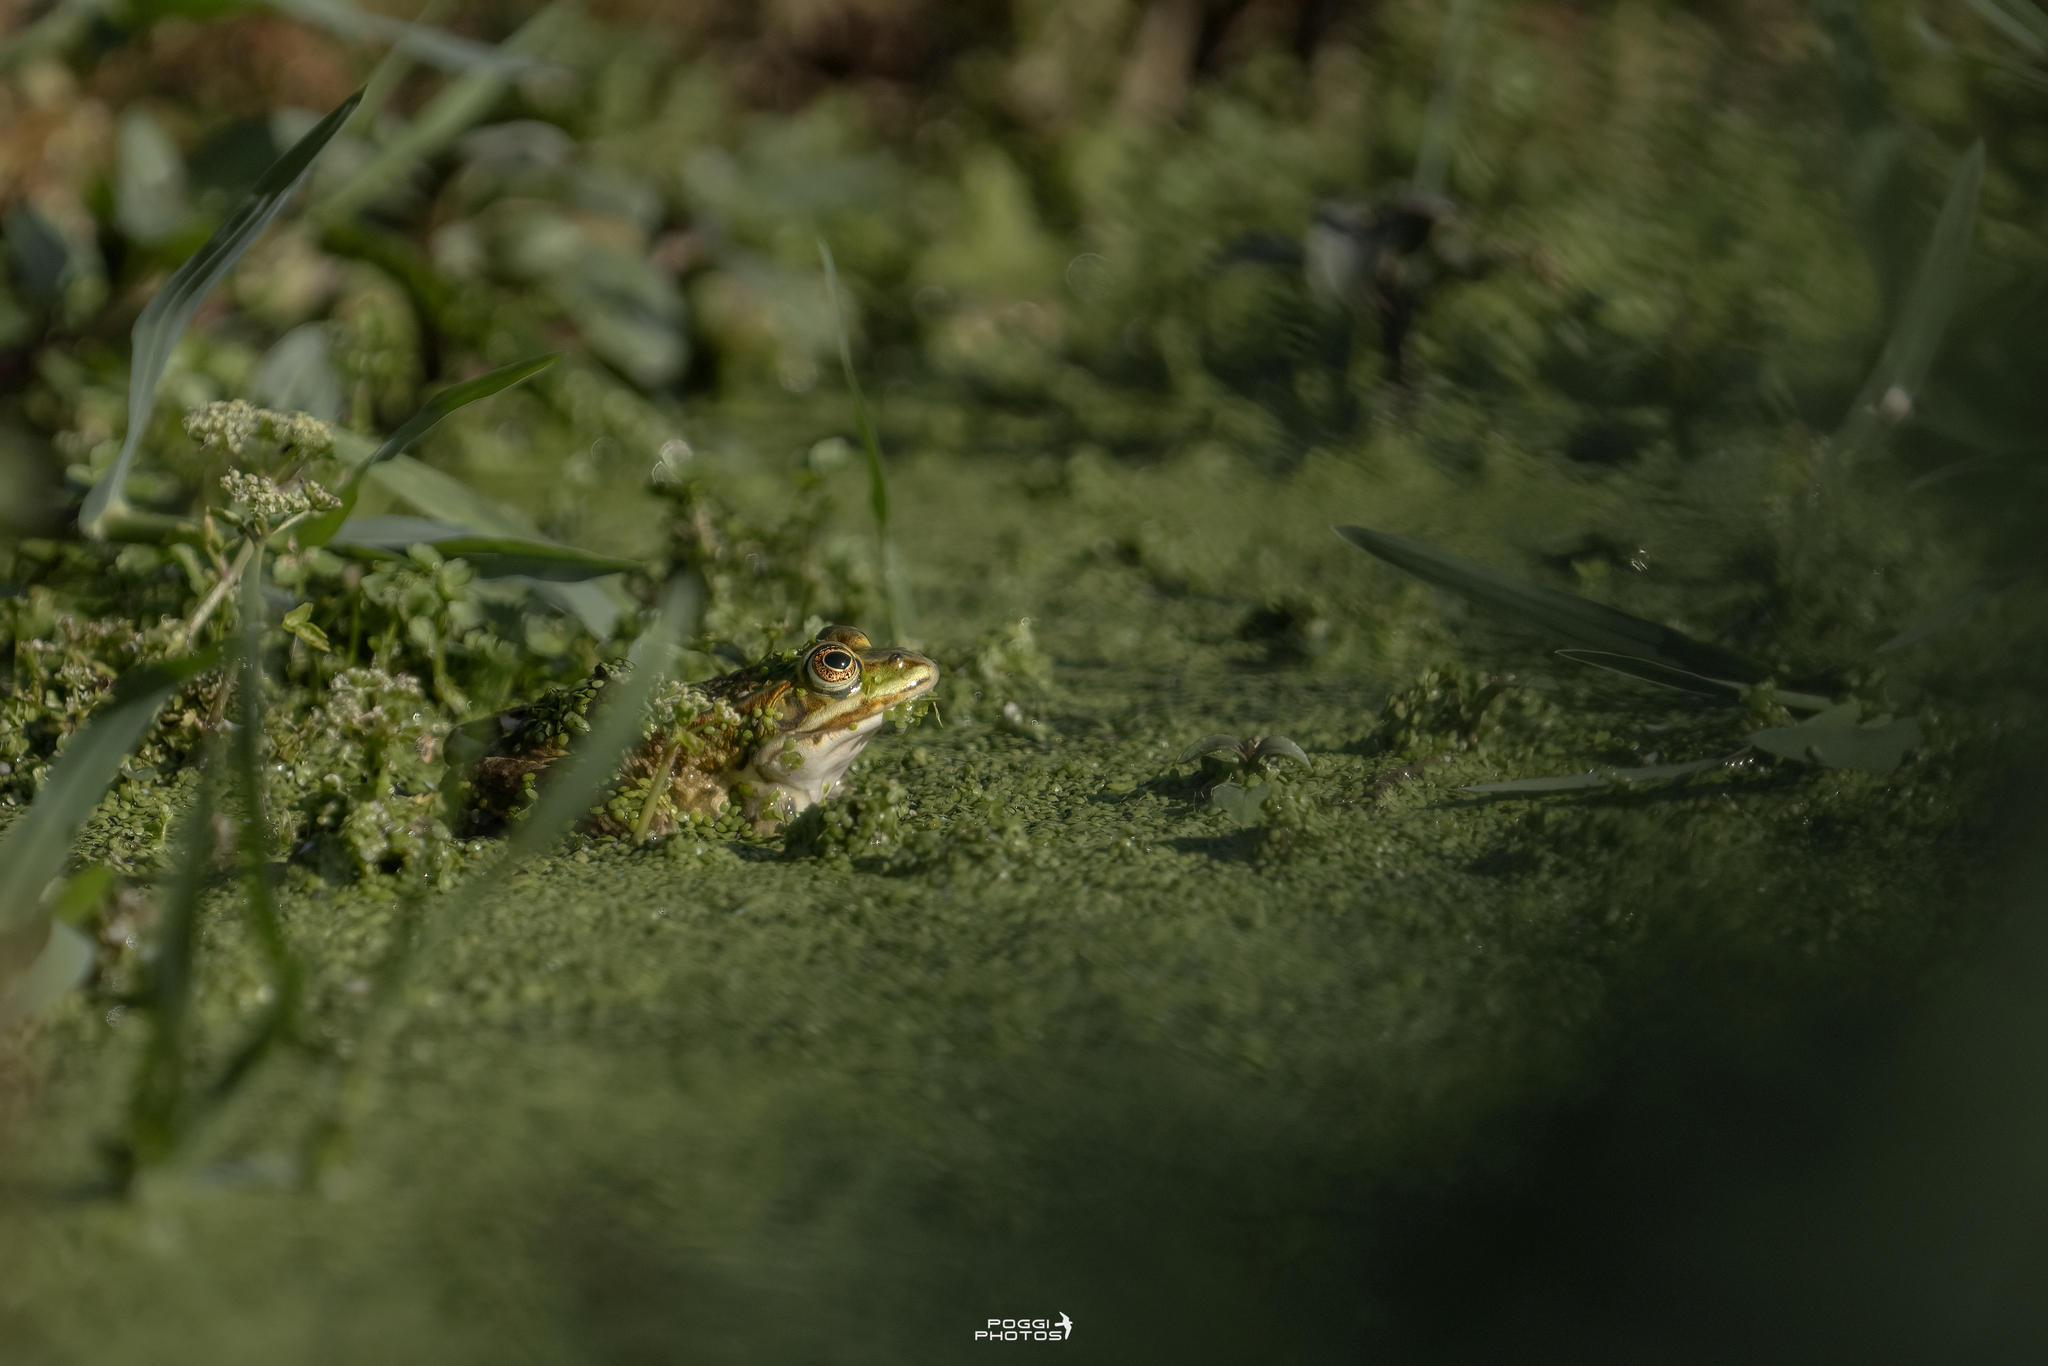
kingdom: Animalia
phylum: Chordata
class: Amphibia
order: Anura
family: Ranidae
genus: Pelophylax
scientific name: Pelophylax
